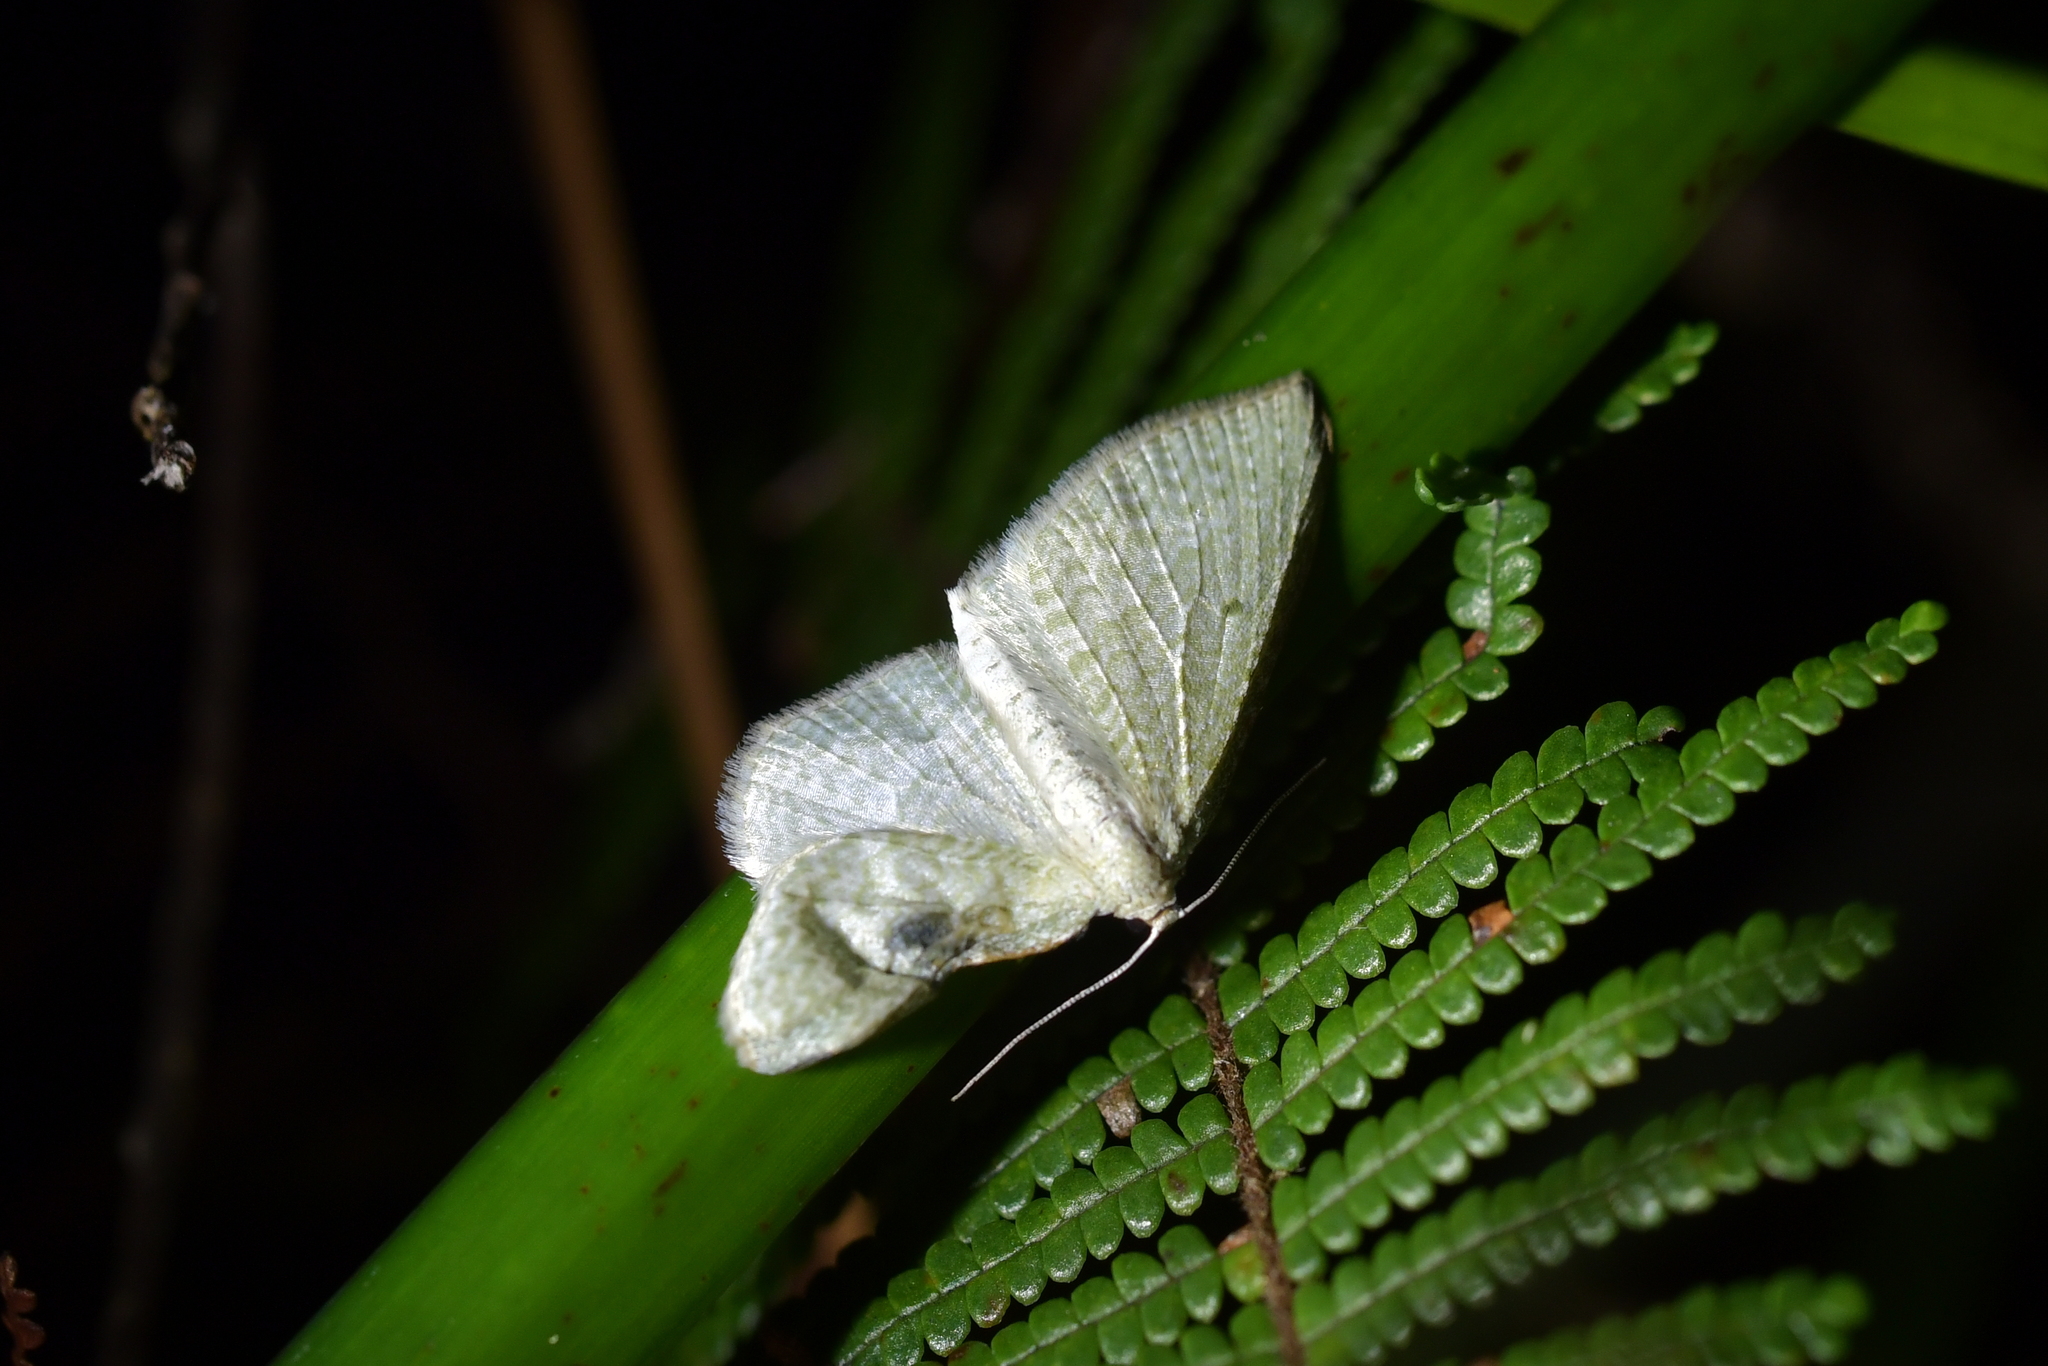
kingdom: Animalia
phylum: Arthropoda
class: Insecta
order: Lepidoptera
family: Geometridae
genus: Poecilasthena
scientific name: Poecilasthena pulchraria
